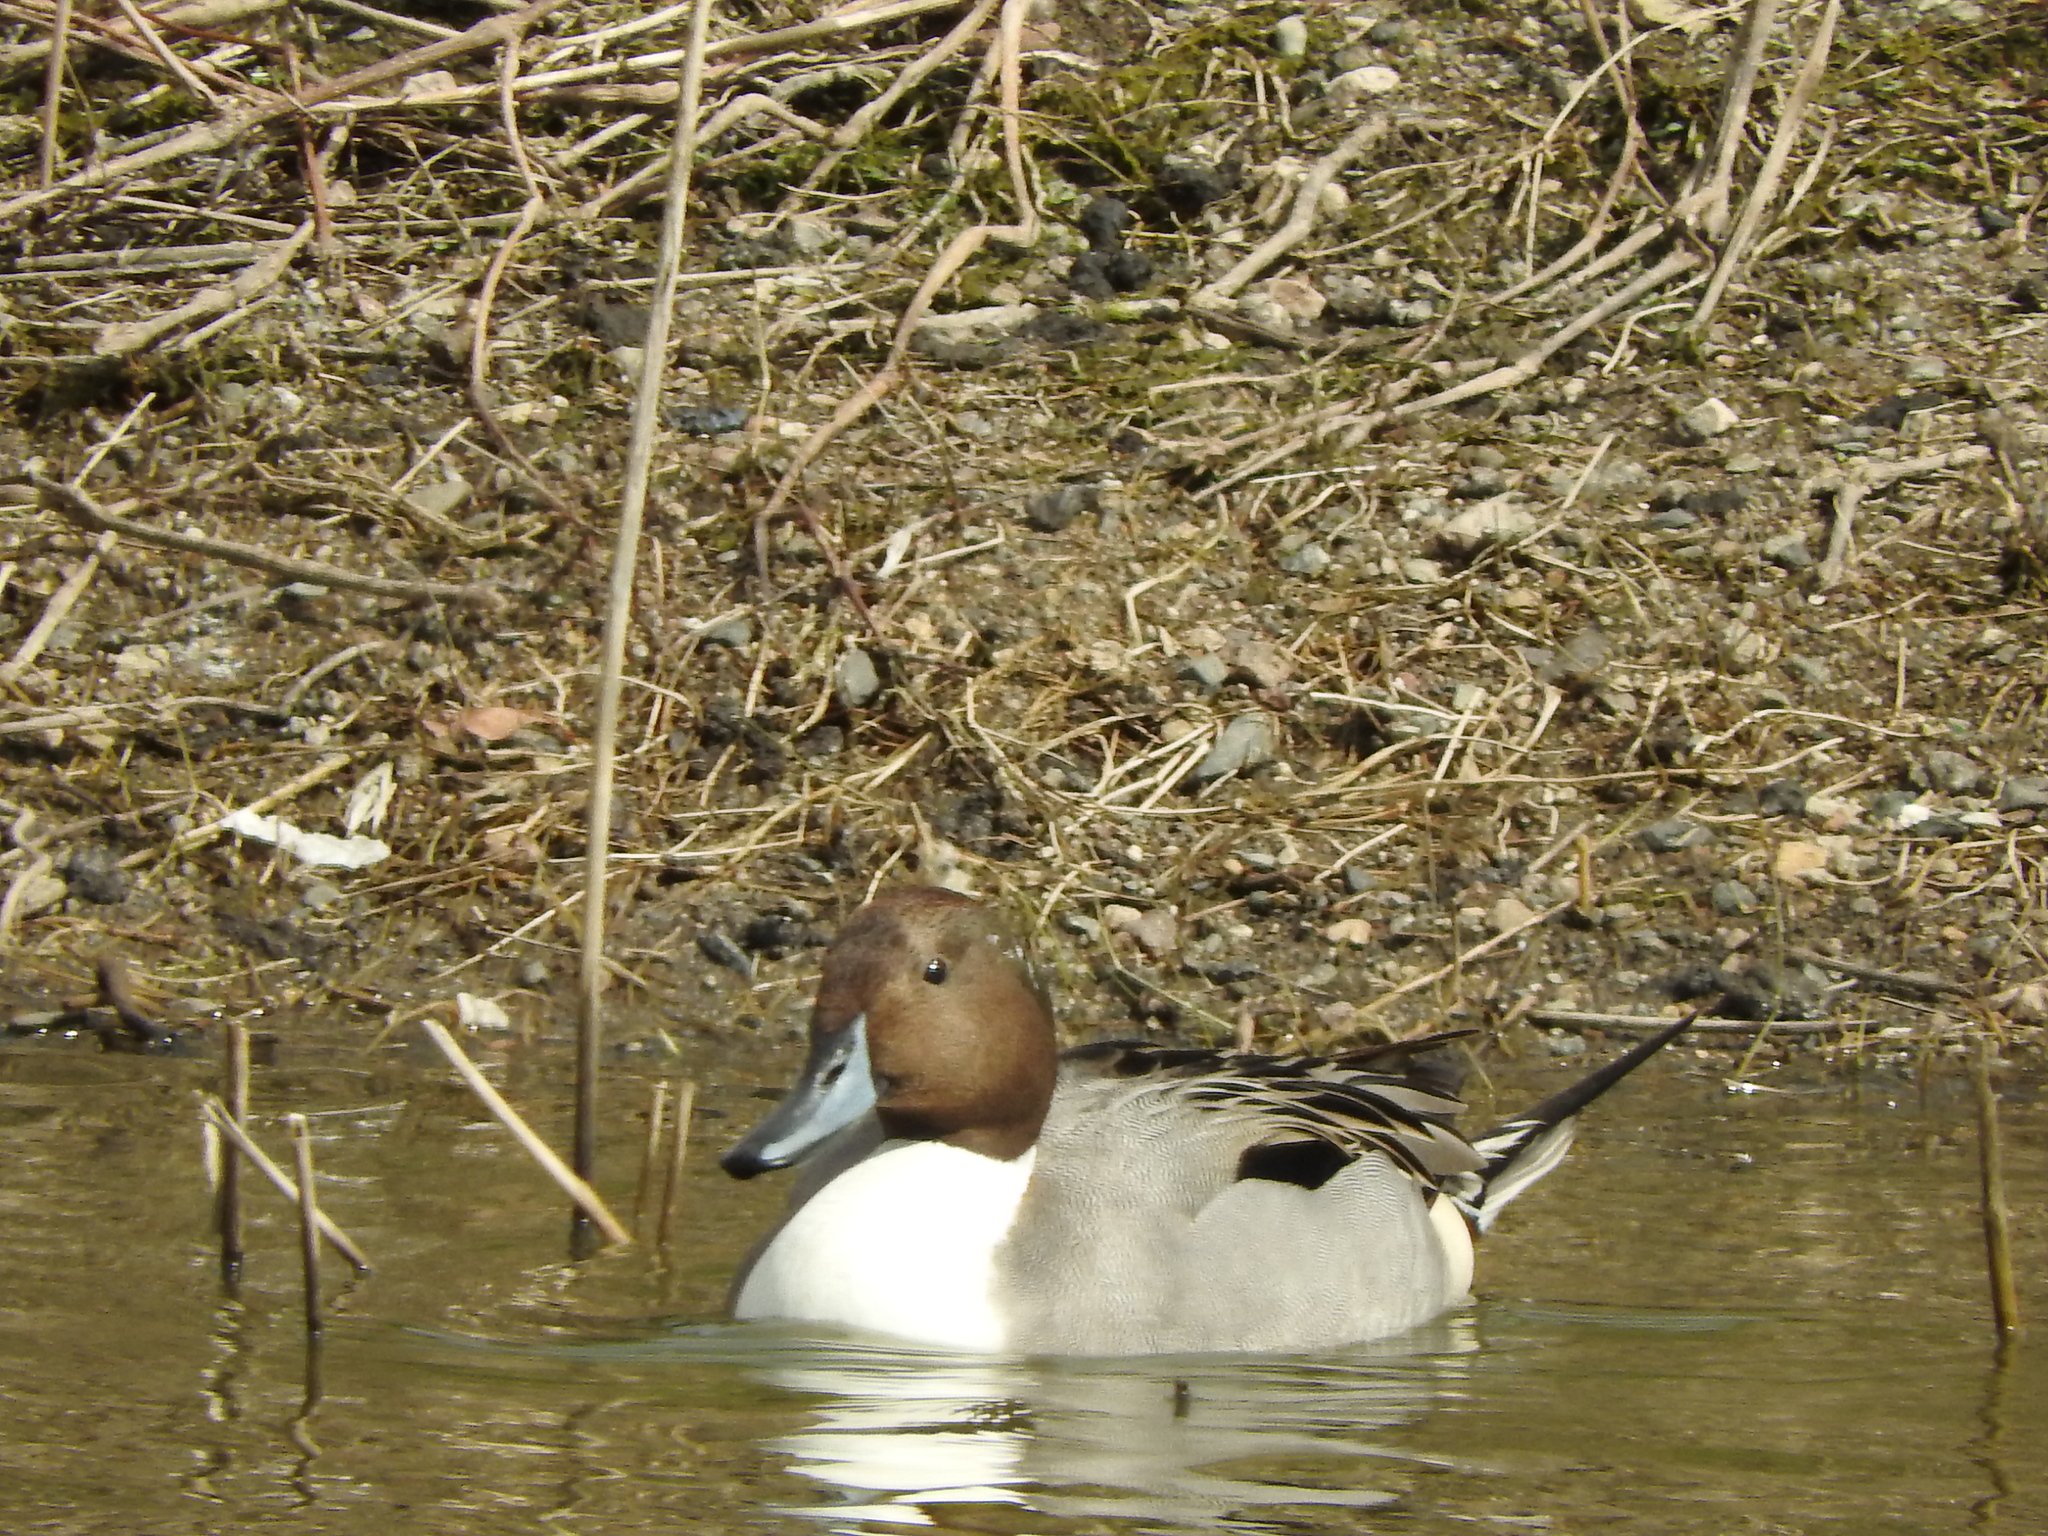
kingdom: Animalia
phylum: Chordata
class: Aves
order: Anseriformes
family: Anatidae
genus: Anas
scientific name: Anas acuta
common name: Northern pintail
